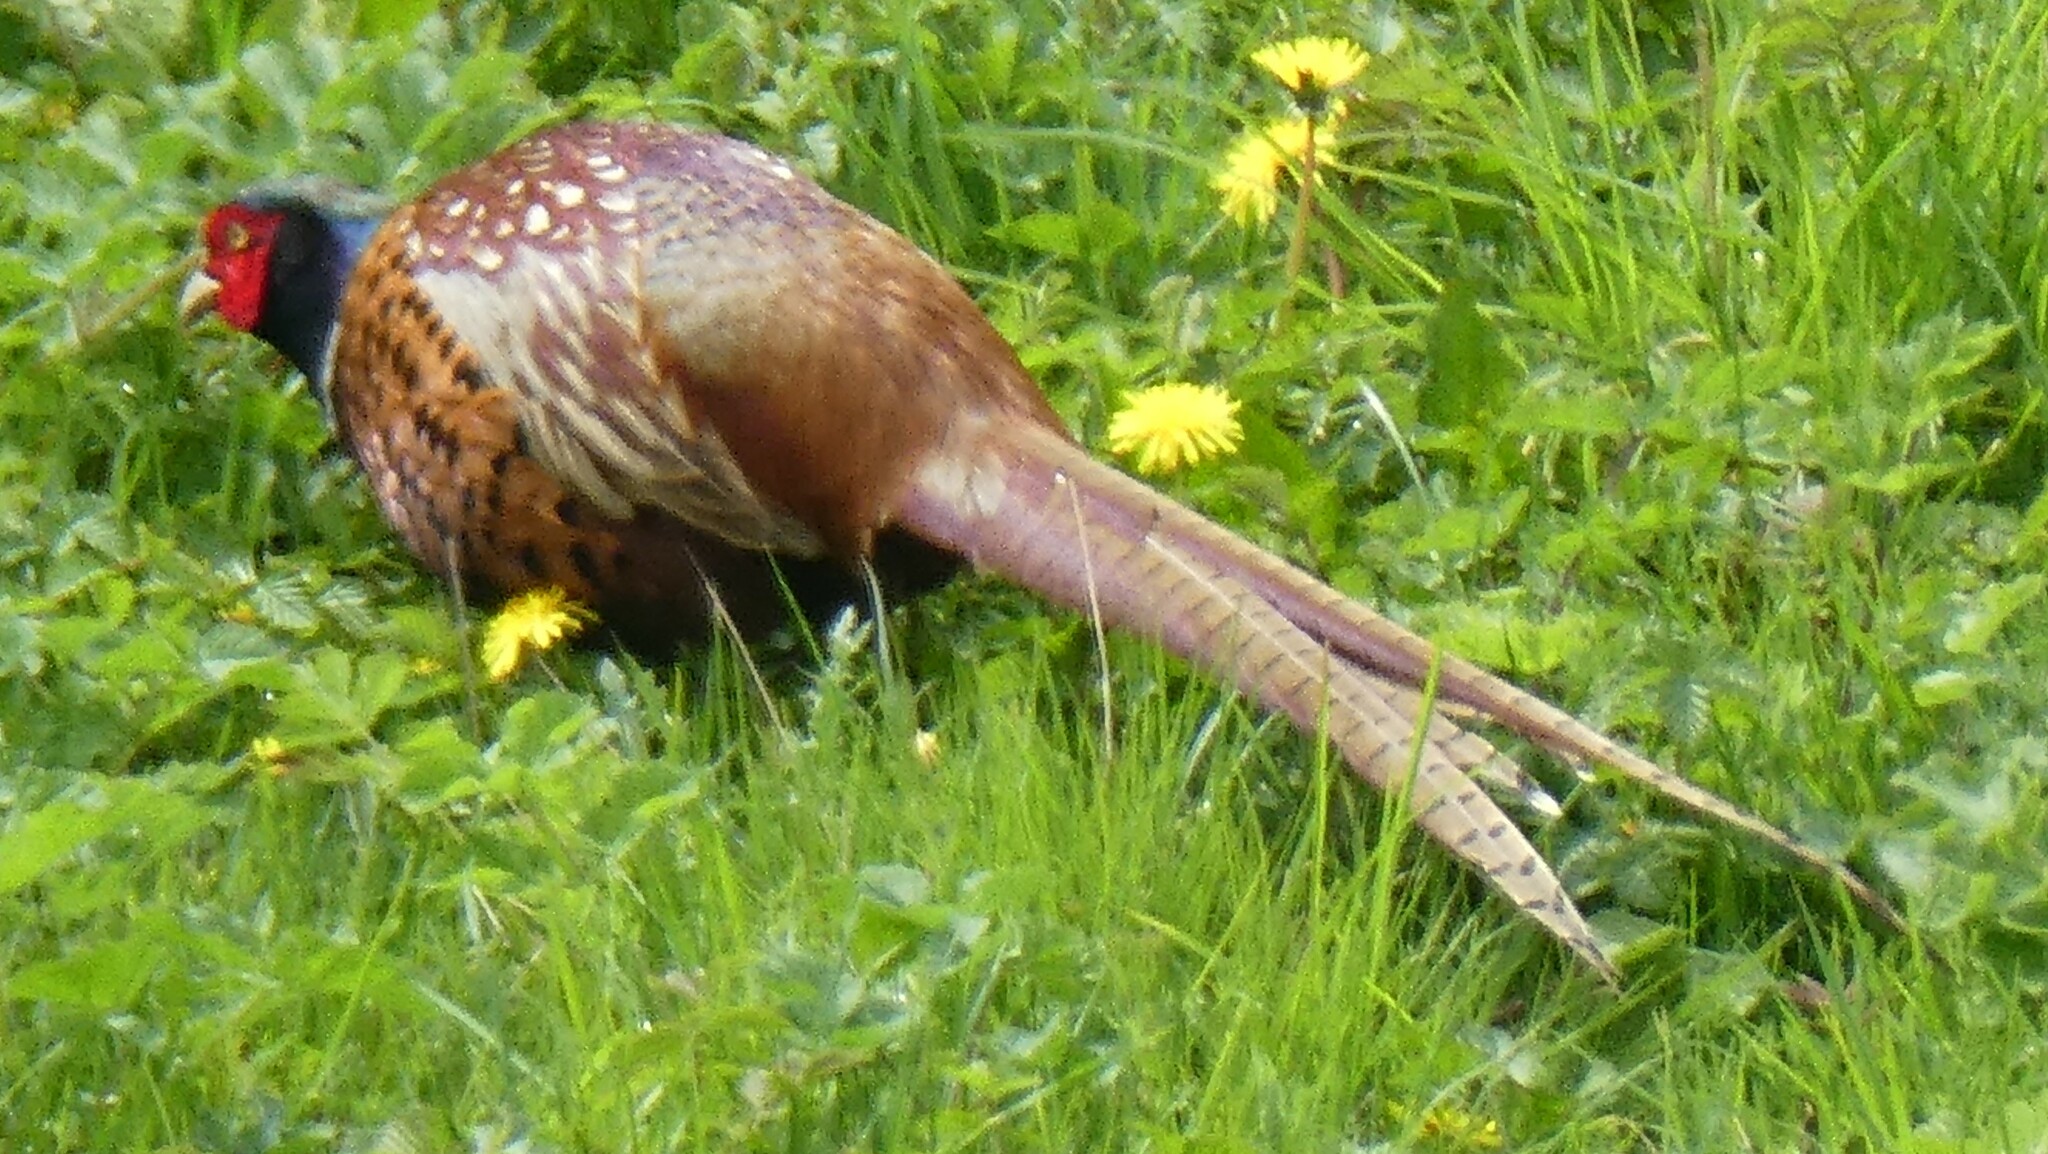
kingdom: Animalia
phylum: Chordata
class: Aves
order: Galliformes
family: Phasianidae
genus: Phasianus
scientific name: Phasianus colchicus
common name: Common pheasant
